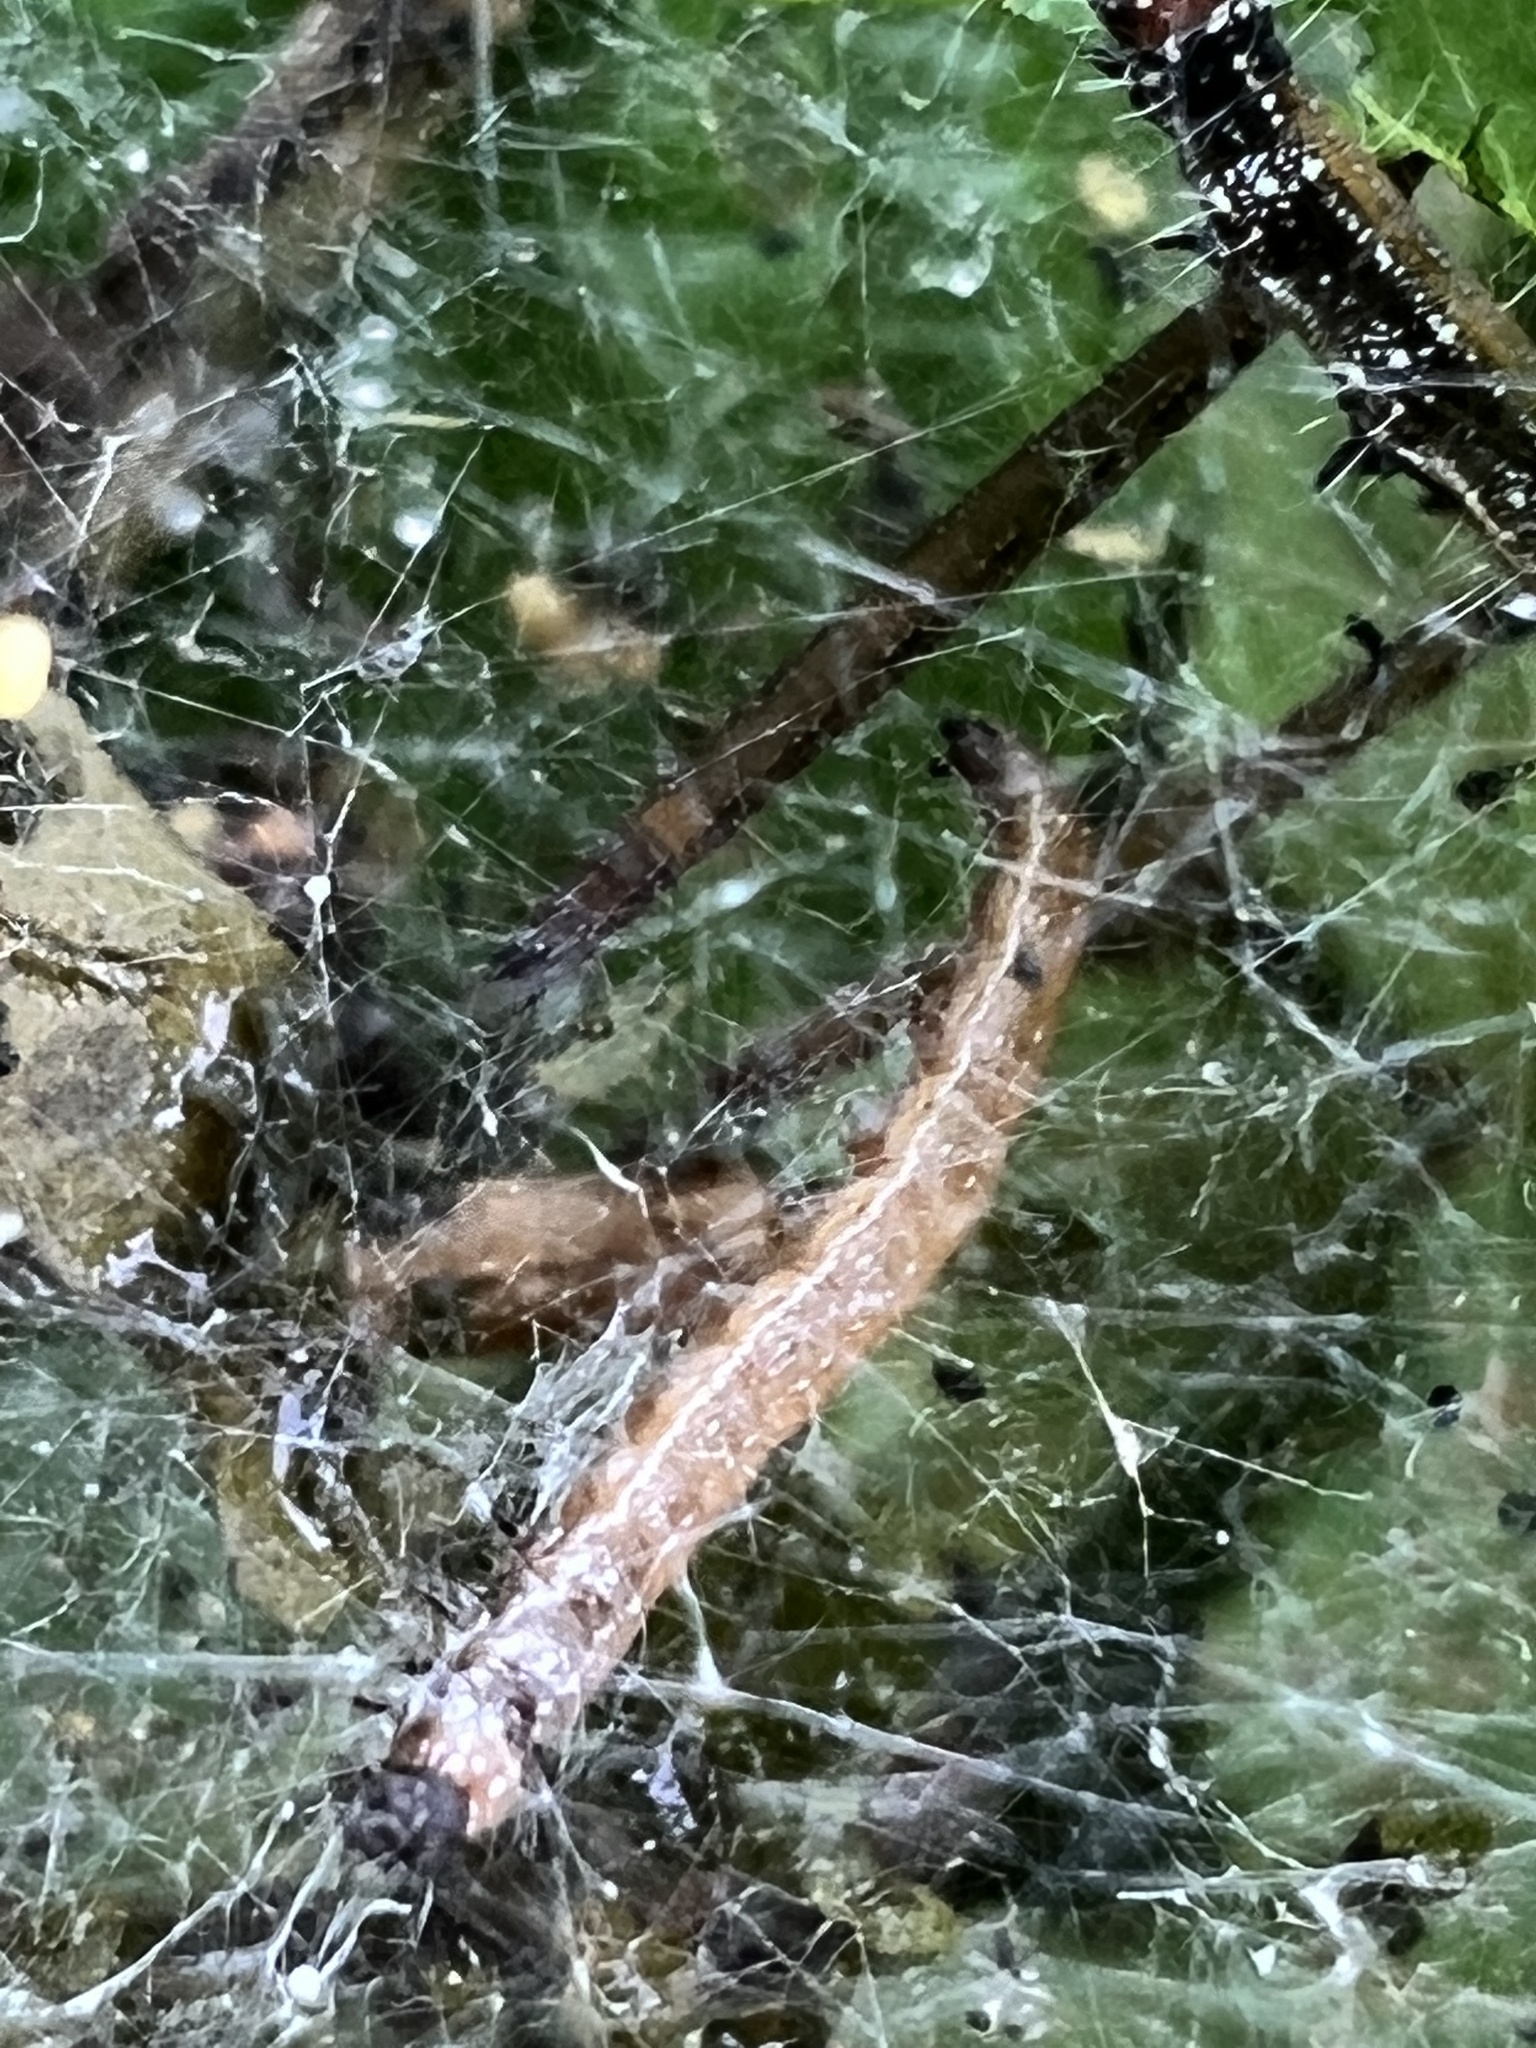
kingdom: Animalia
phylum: Arthropoda
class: Insecta
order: Lepidoptera
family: Attevidae
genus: Atteva
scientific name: Atteva punctella
